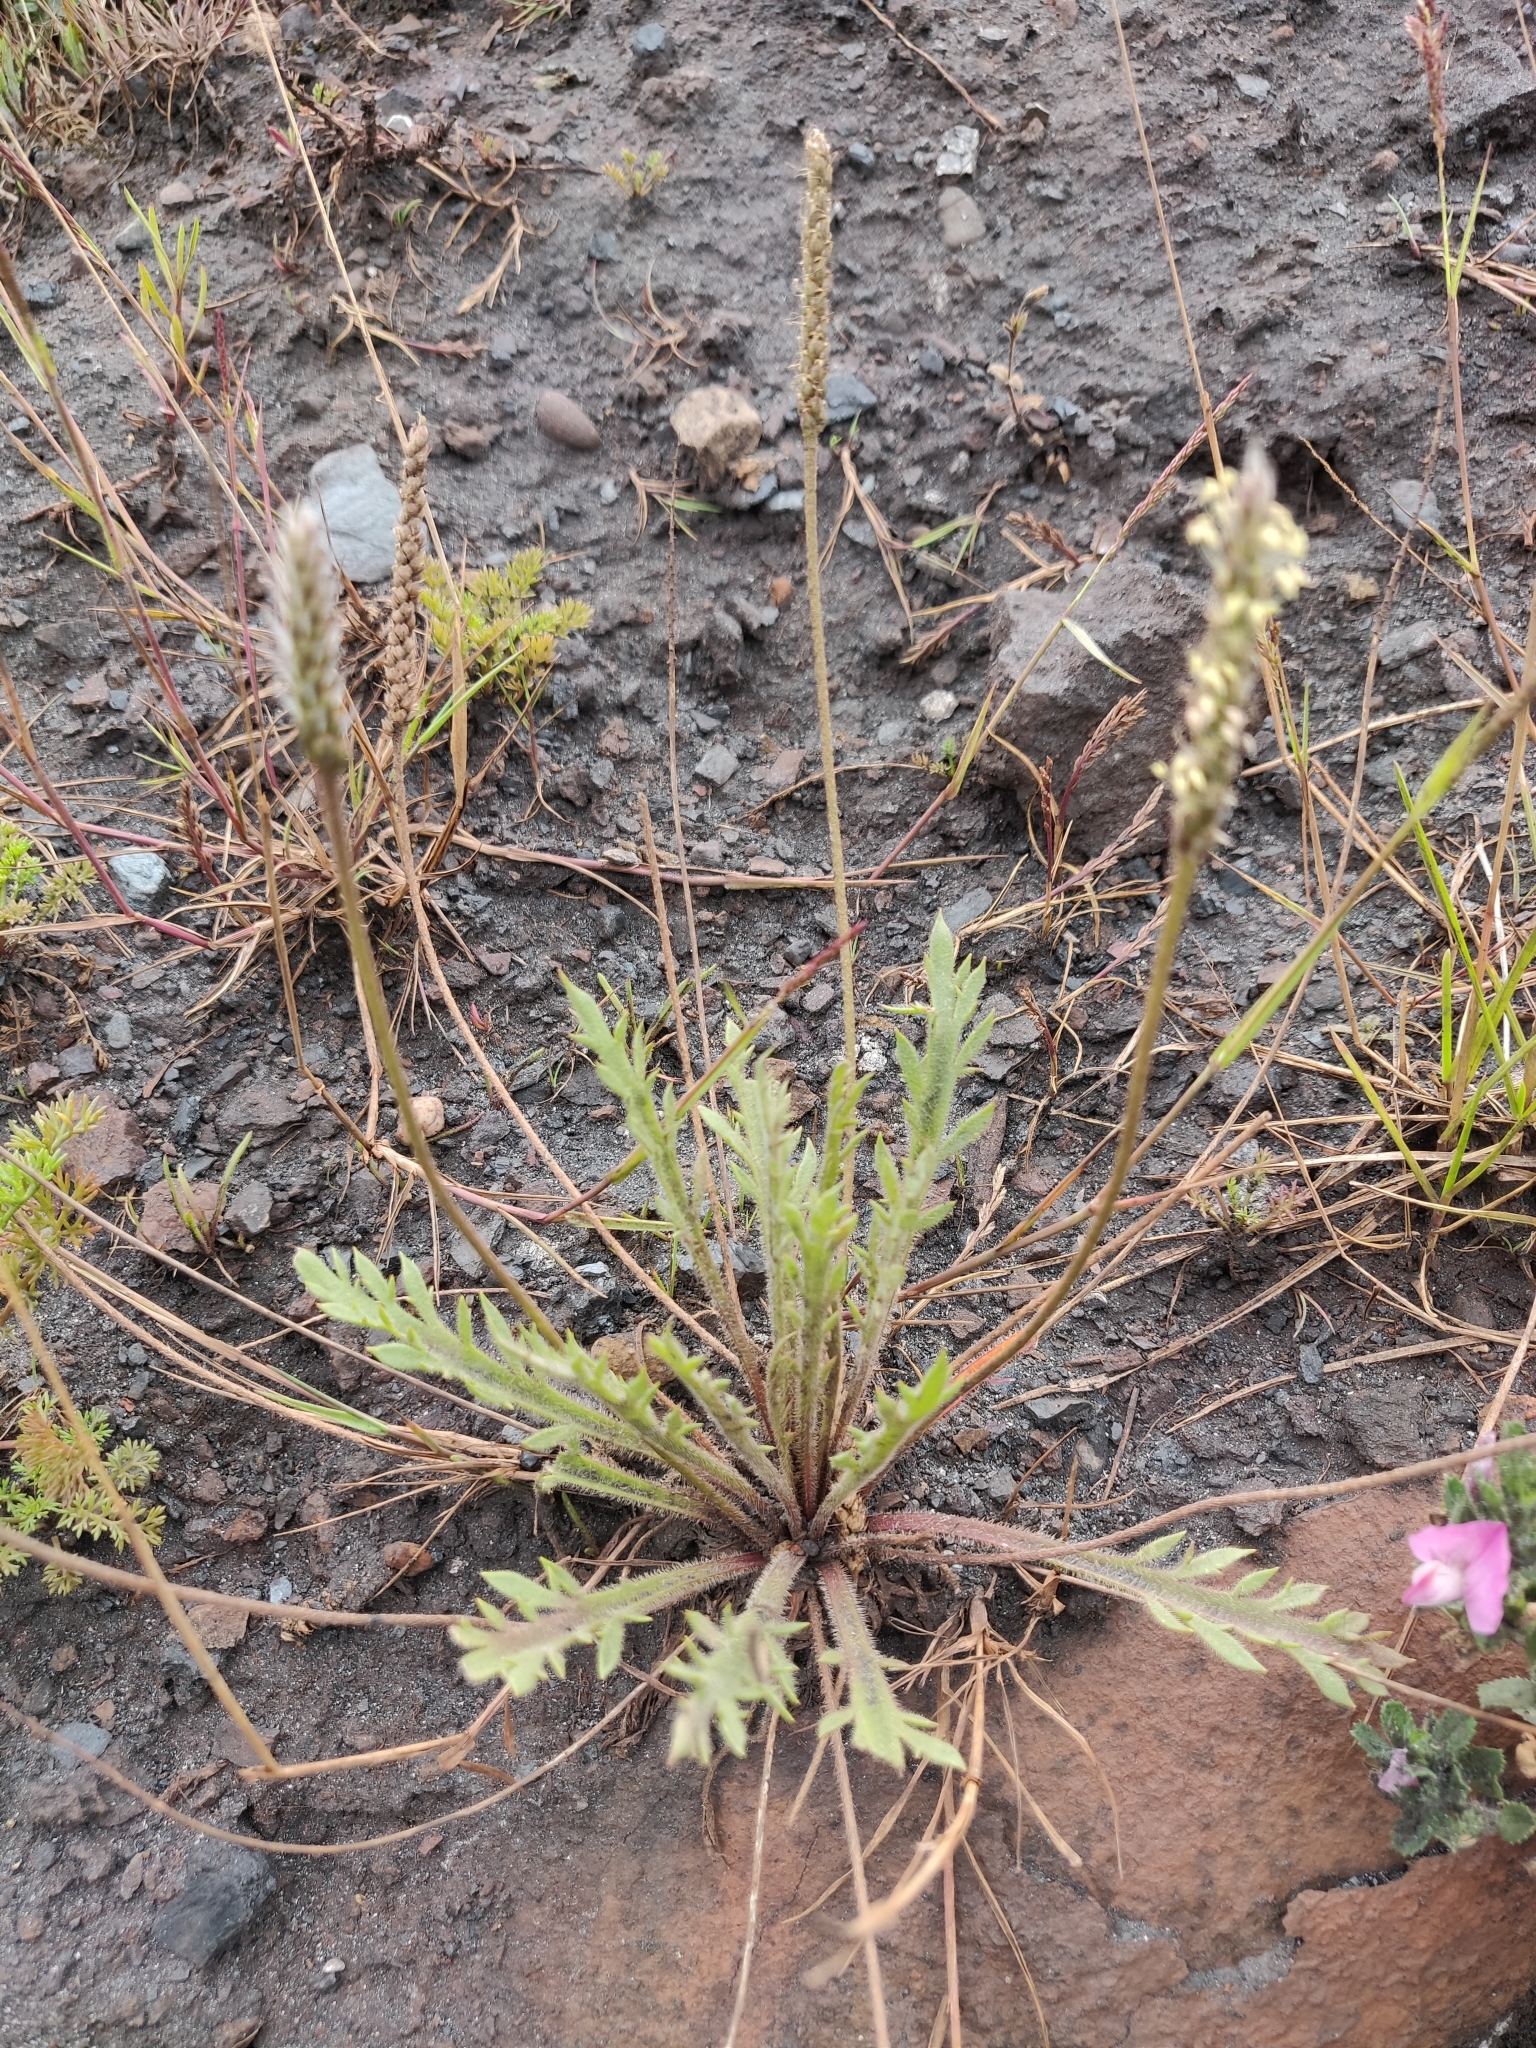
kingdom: Plantae
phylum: Tracheophyta
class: Magnoliopsida
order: Lamiales
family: Plantaginaceae
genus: Plantago
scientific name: Plantago coronopus
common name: Buck's-horn plantain
